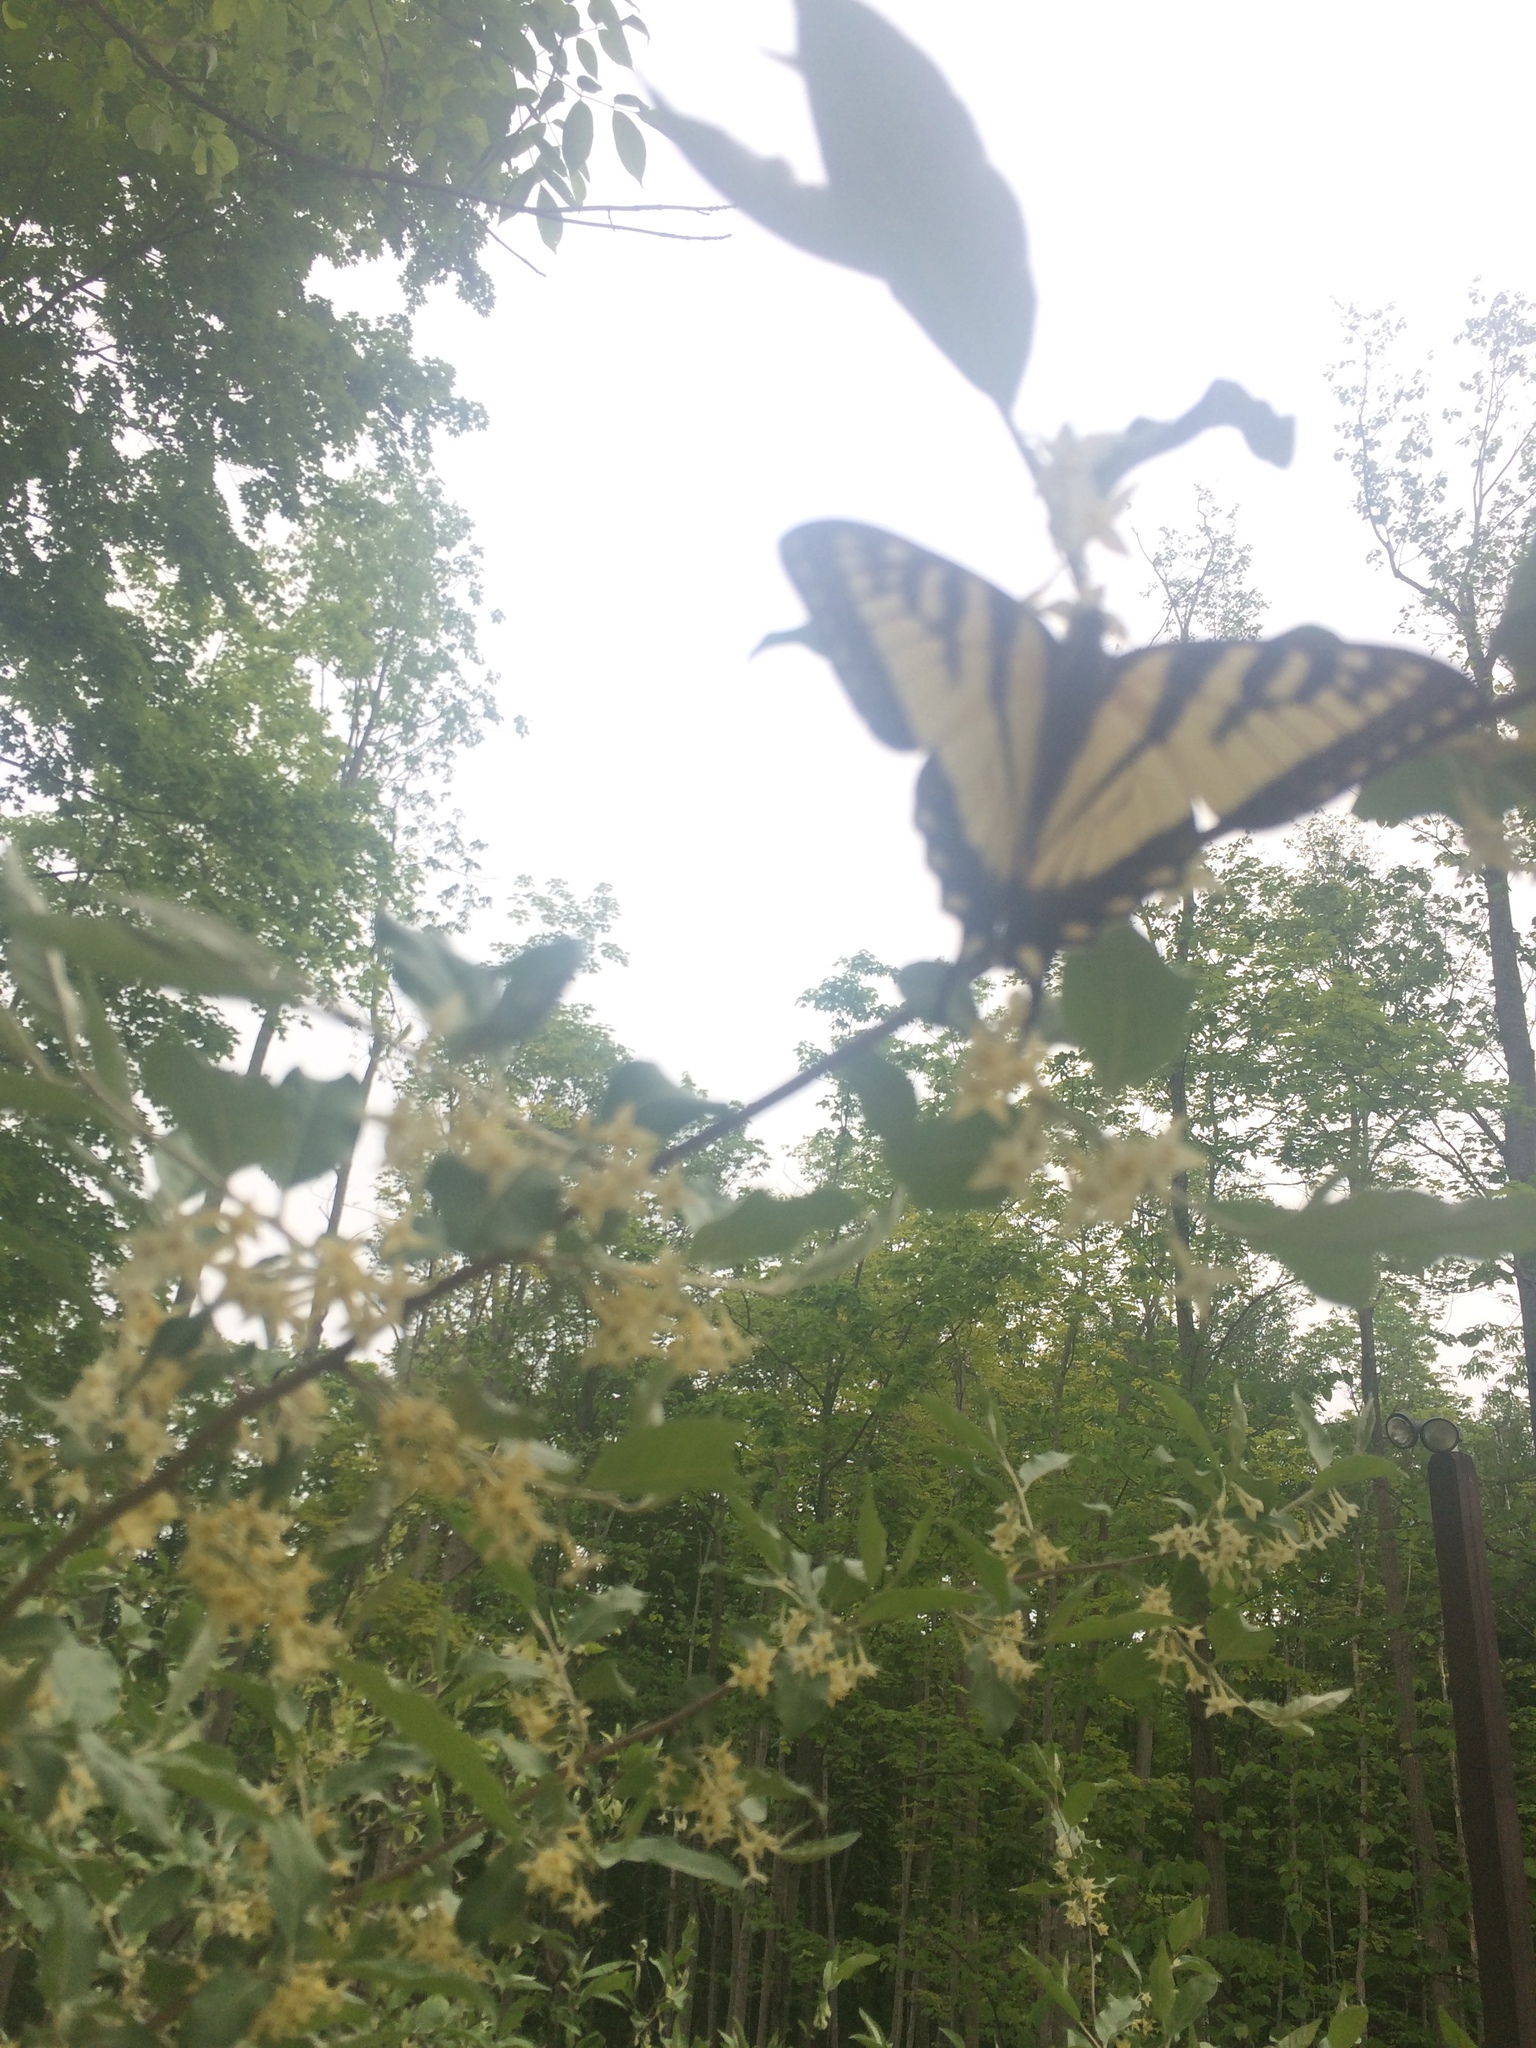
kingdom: Animalia
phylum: Arthropoda
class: Insecta
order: Lepidoptera
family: Papilionidae
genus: Papilio
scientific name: Papilio canadensis
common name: Canadian tiger swallowtail
